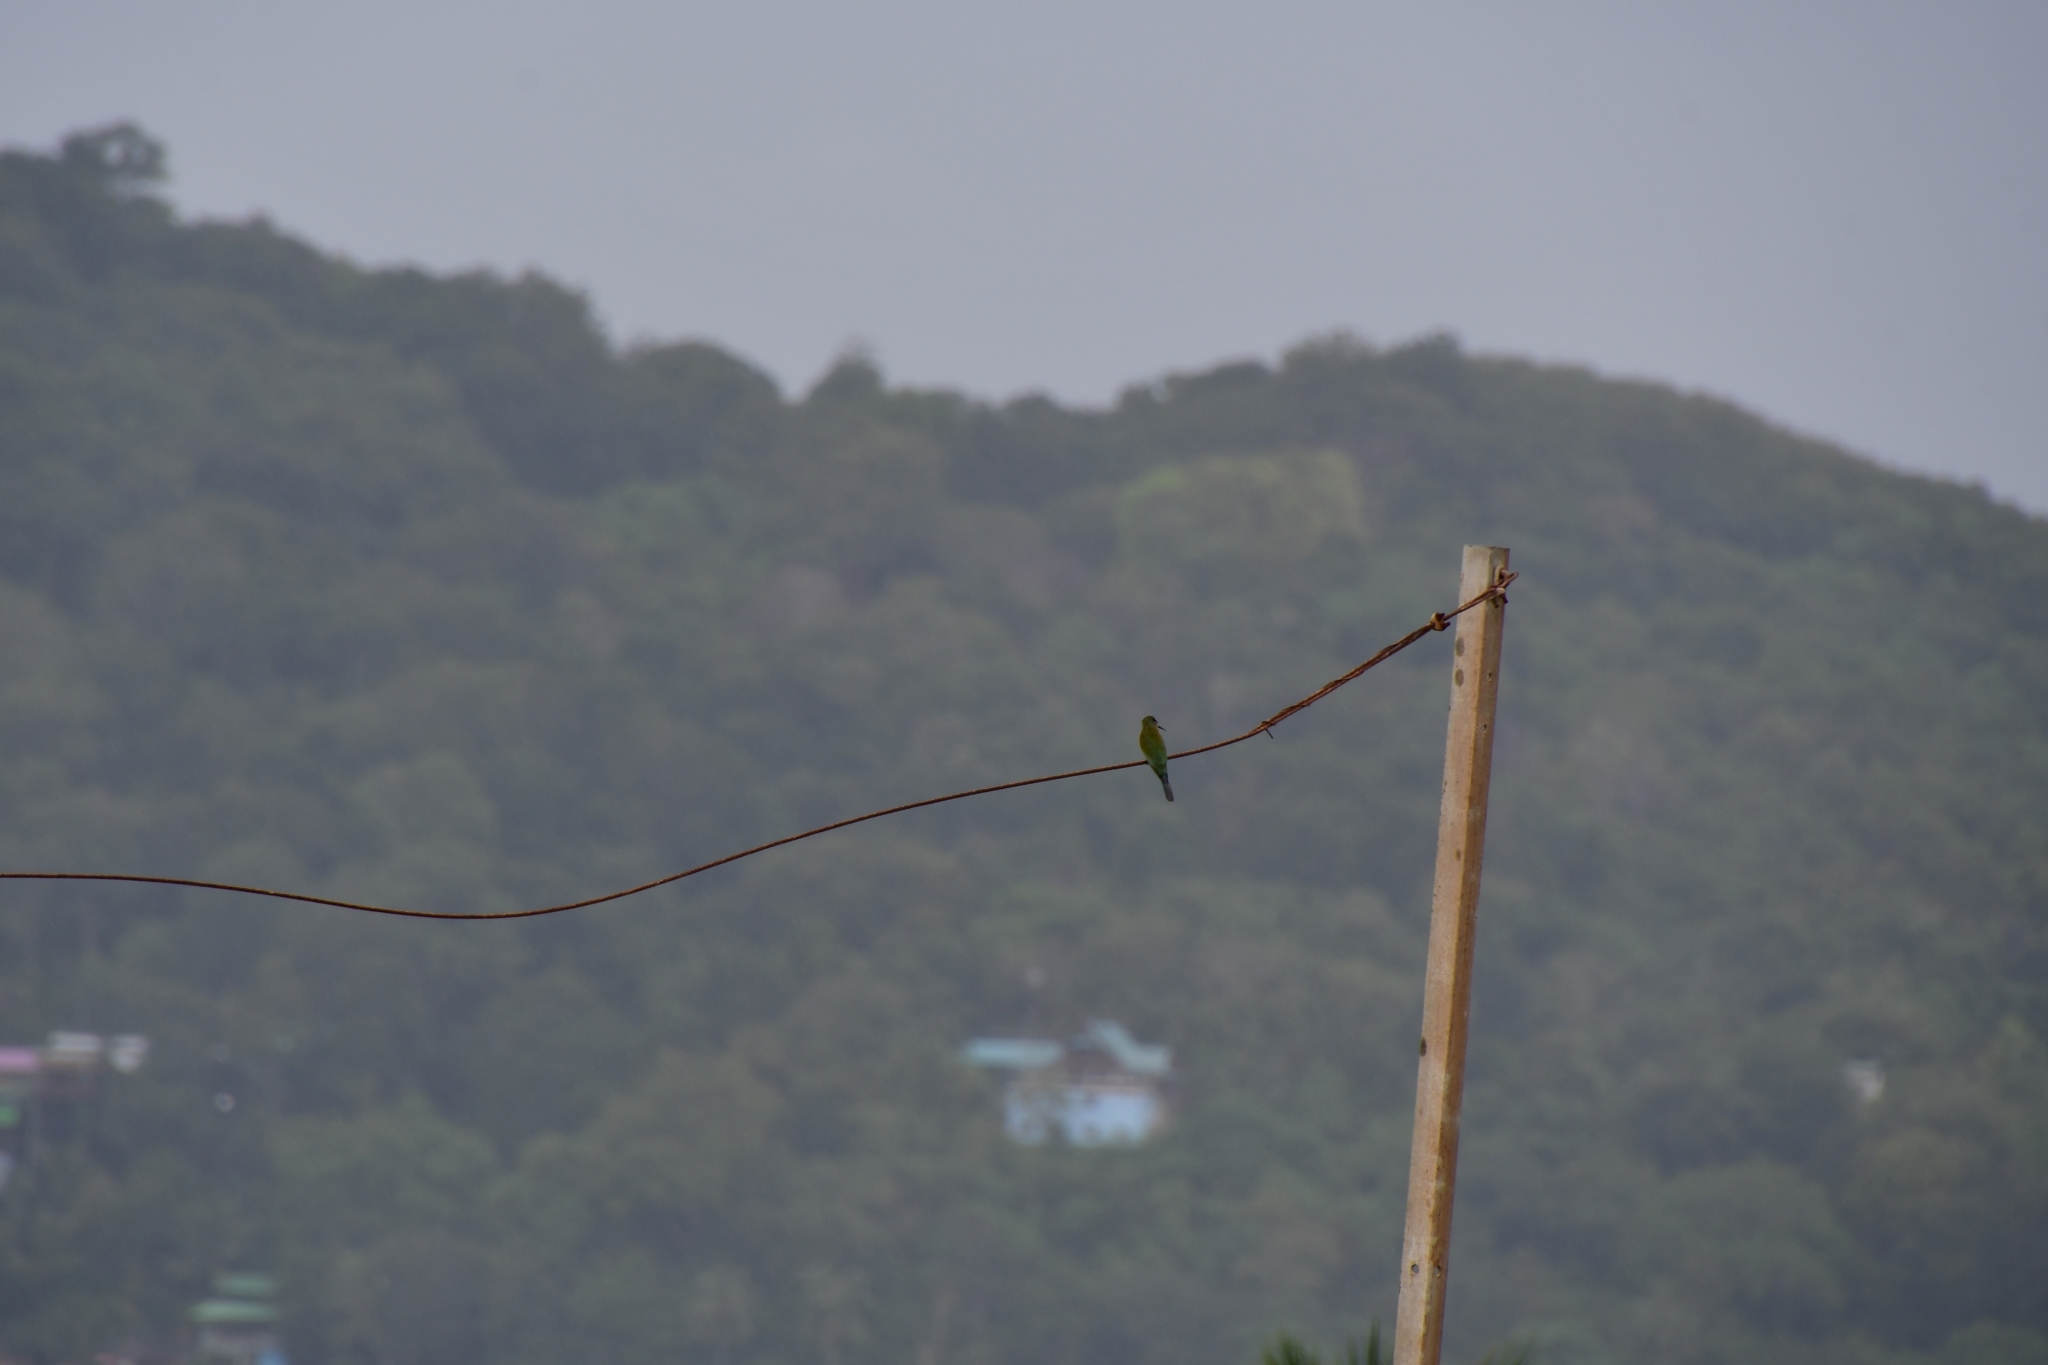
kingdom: Animalia
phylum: Chordata
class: Aves
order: Coraciiformes
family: Meropidae
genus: Merops
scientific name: Merops philippinus
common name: Blue-tailed bee-eater
